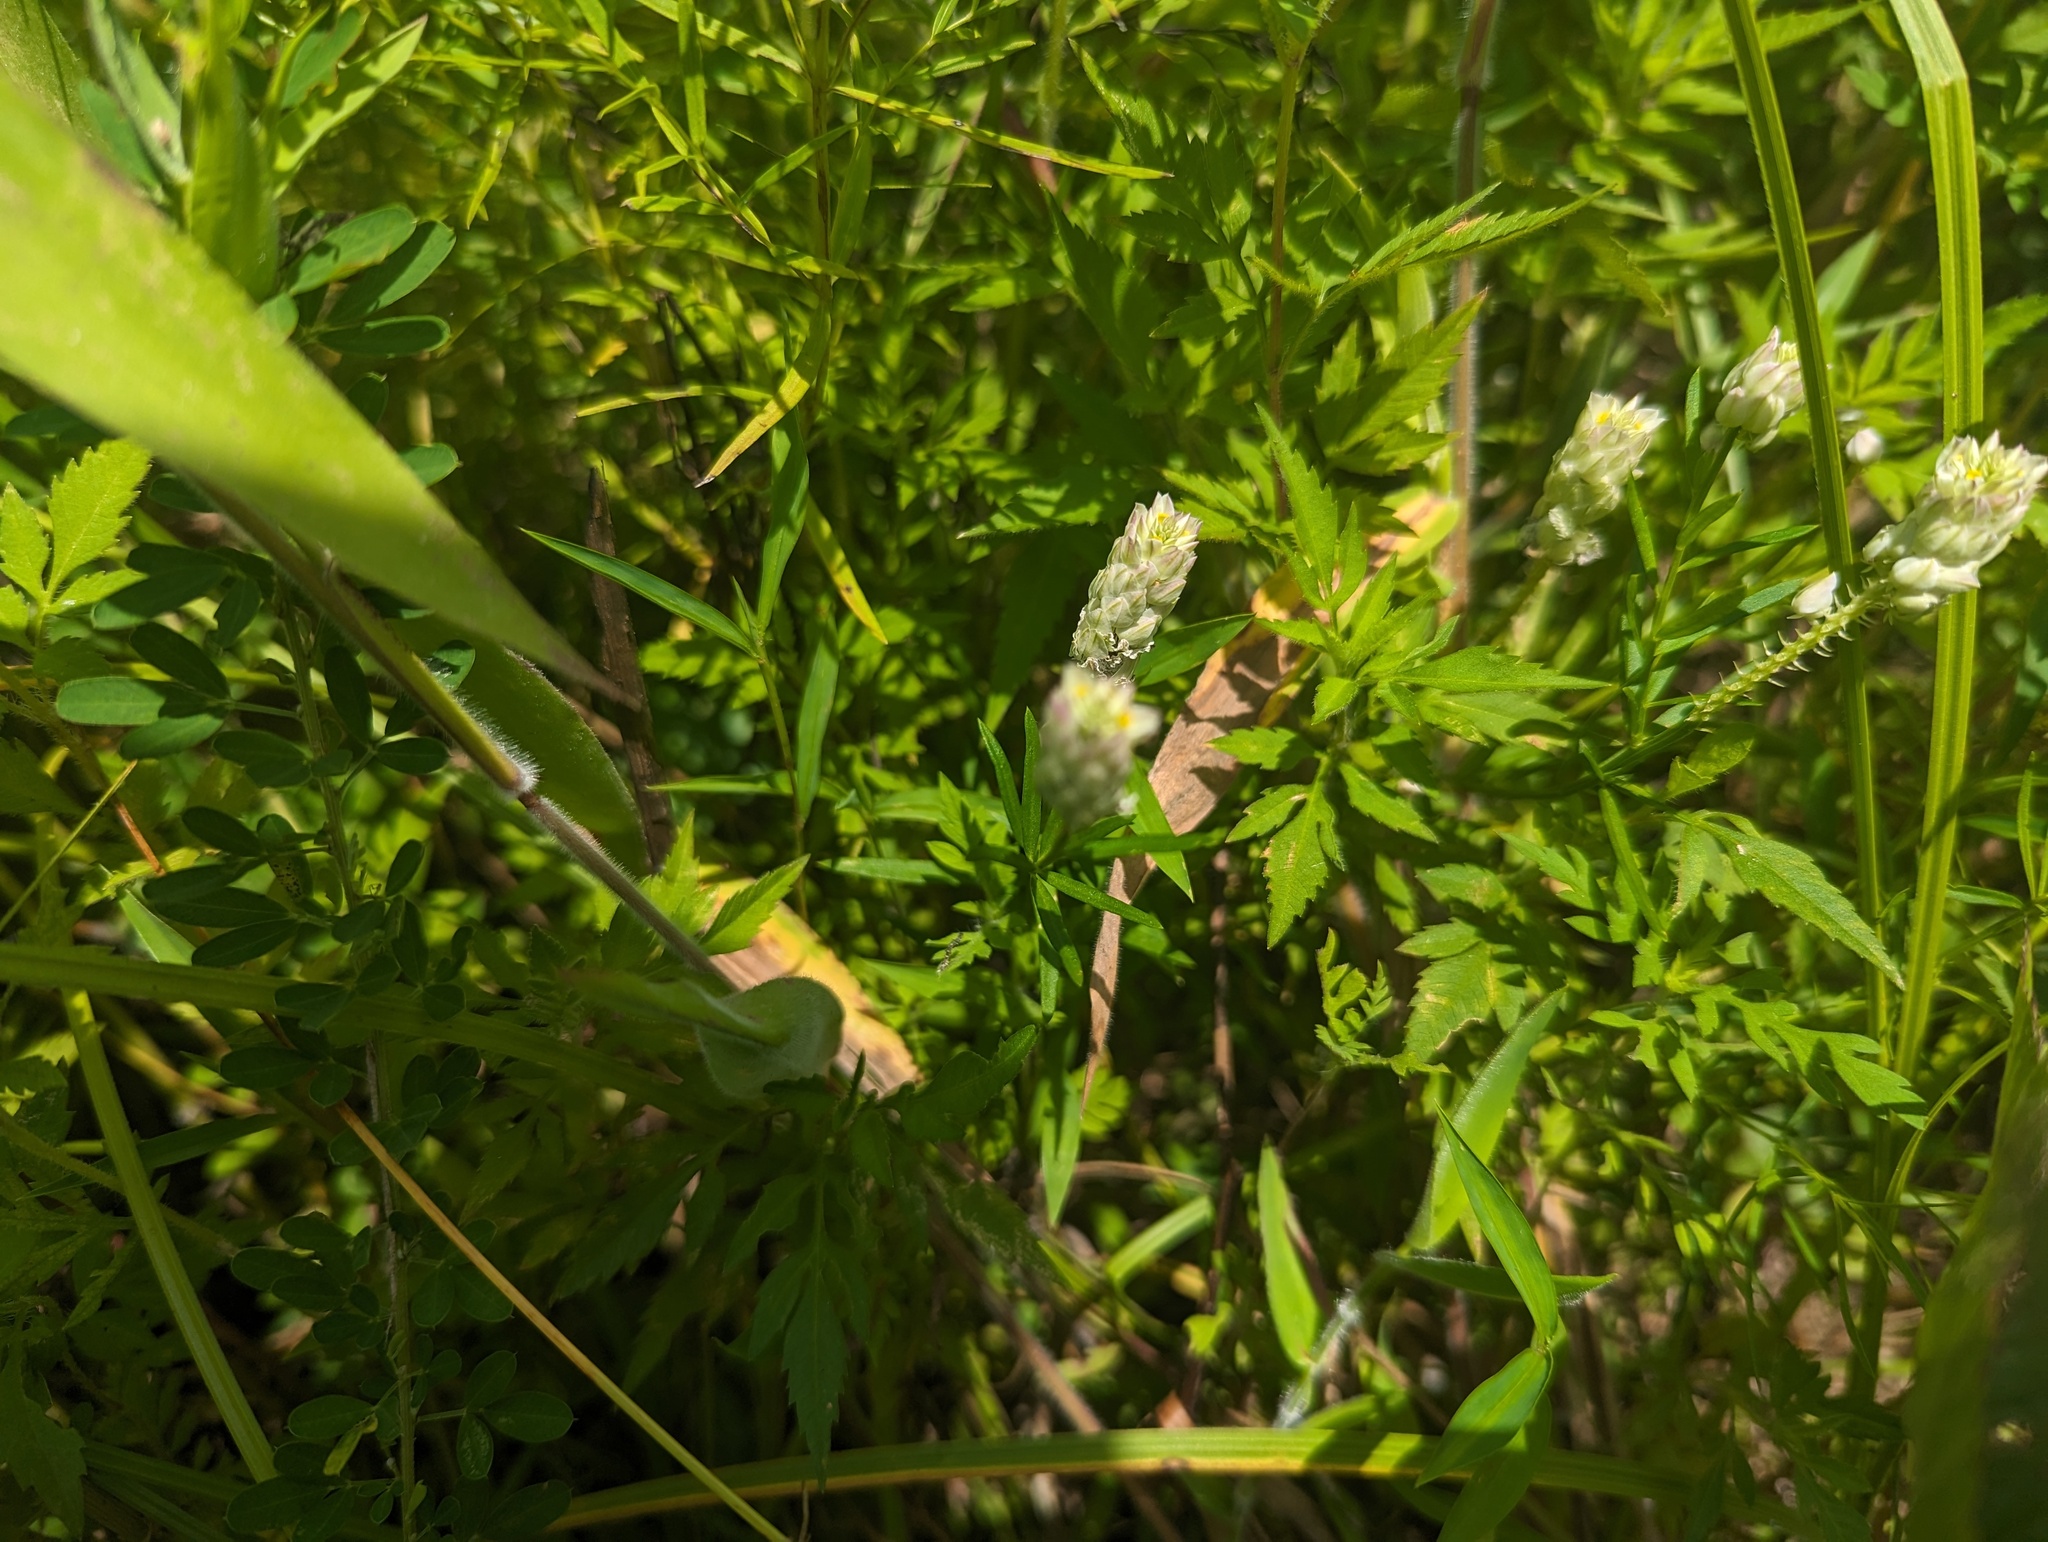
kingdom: Plantae
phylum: Tracheophyta
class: Magnoliopsida
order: Fabales
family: Polygalaceae
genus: Polygala
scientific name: Polygala sanguinea
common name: Blood milkwort
